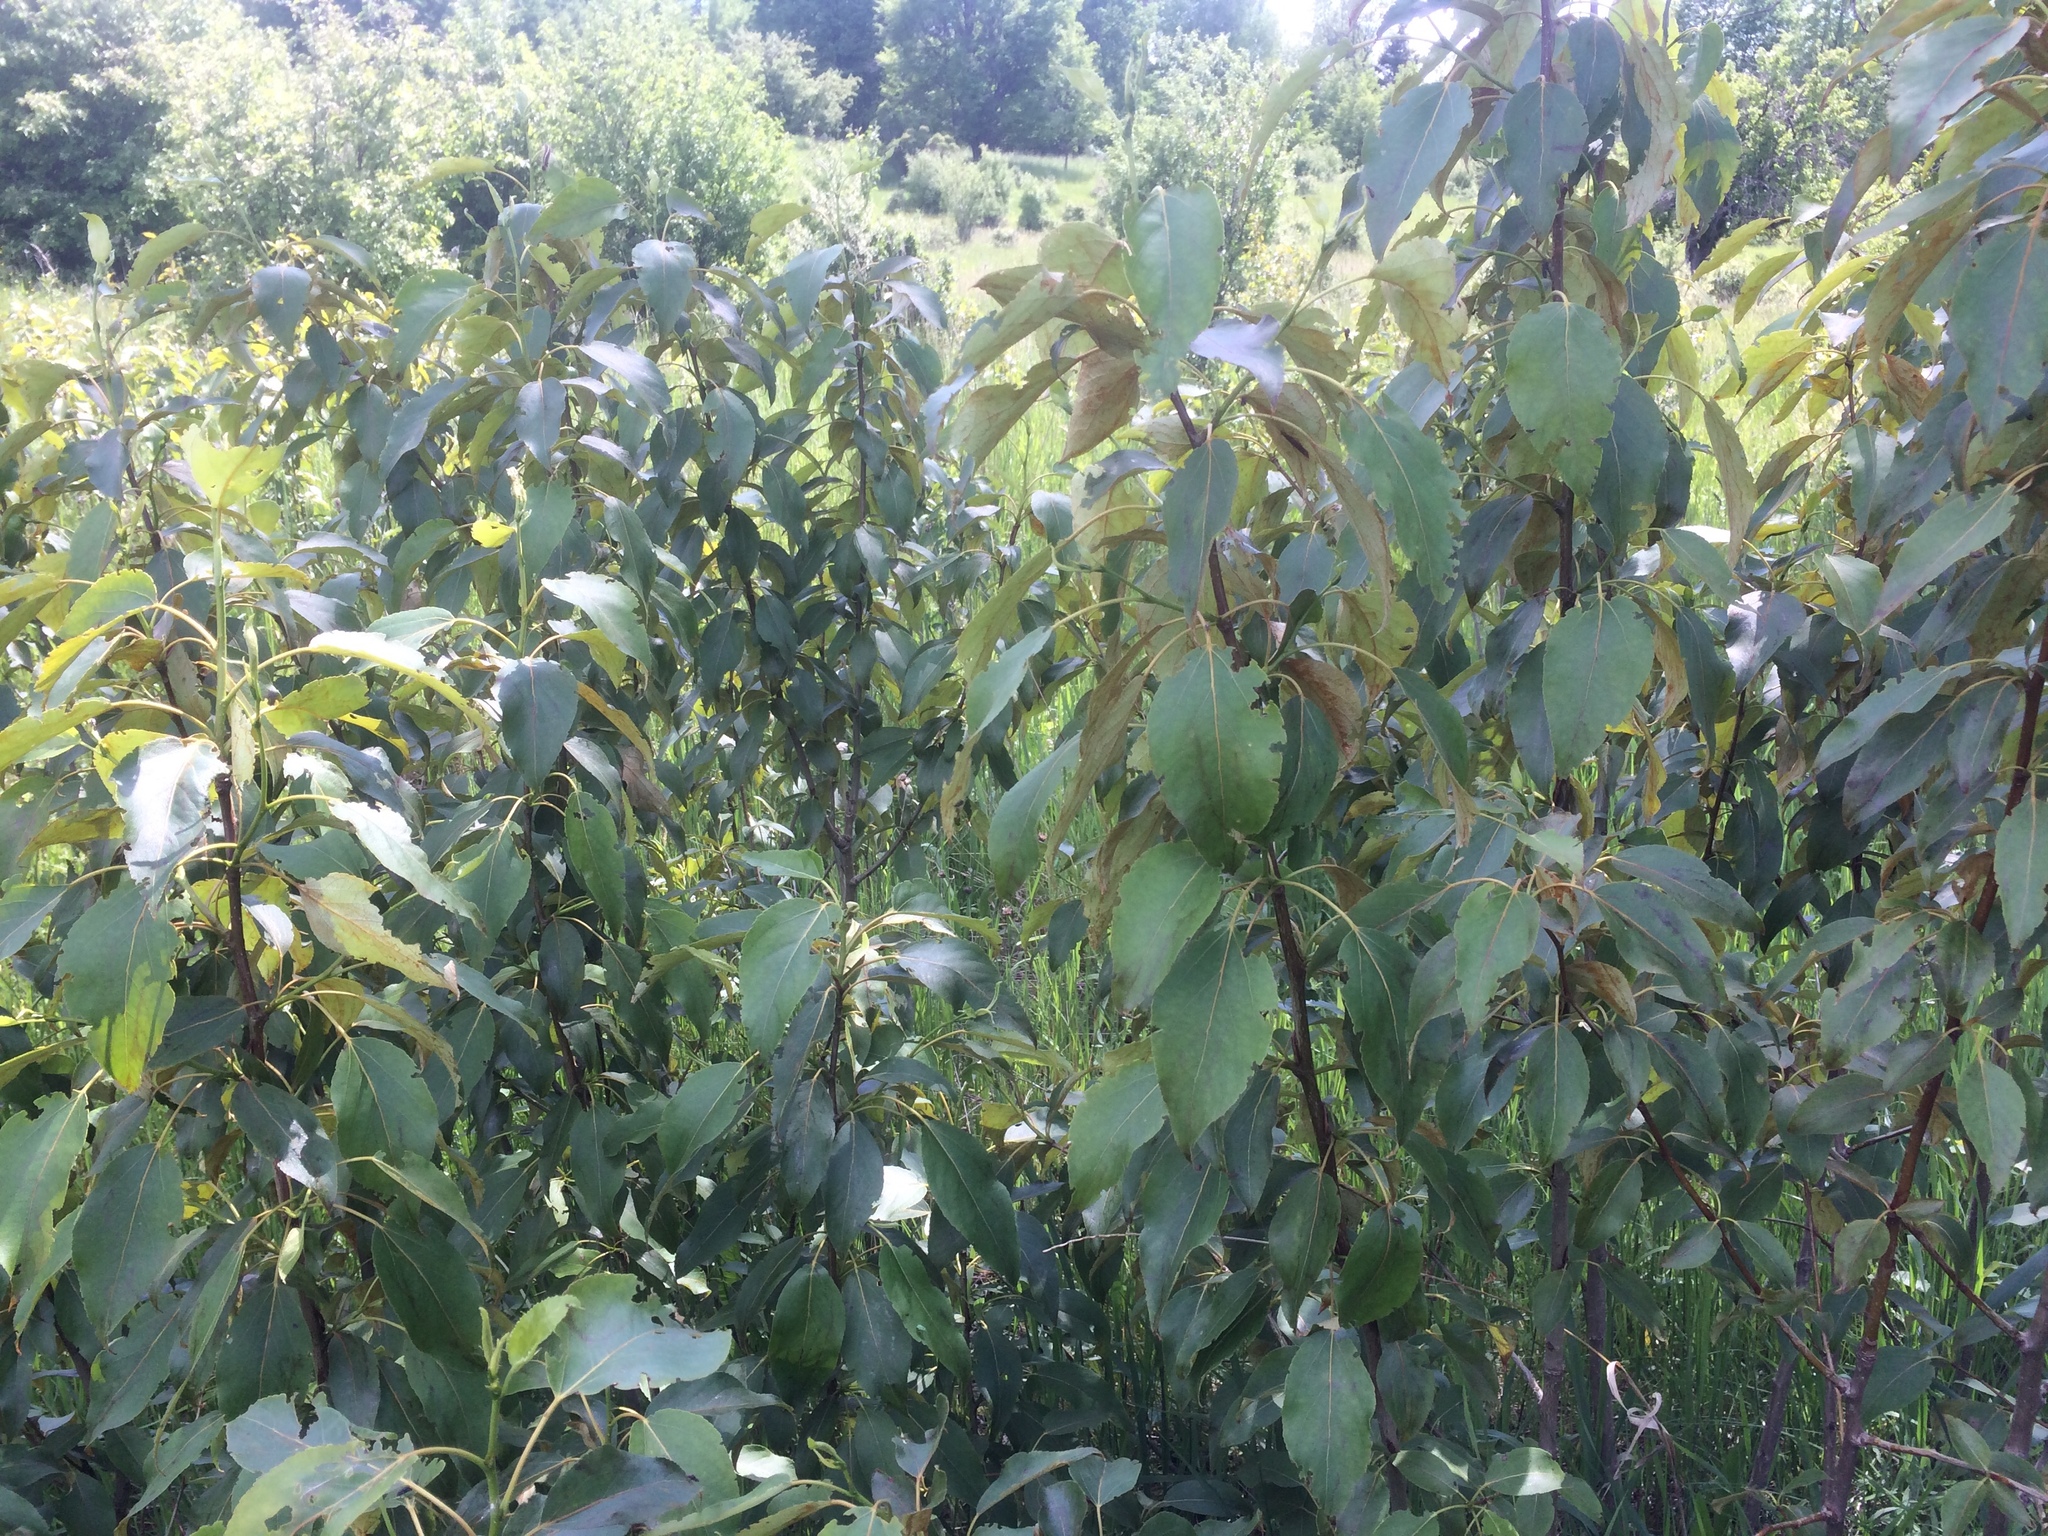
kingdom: Plantae
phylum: Tracheophyta
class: Magnoliopsida
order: Malpighiales
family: Salicaceae
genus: Populus
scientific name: Populus balsamifera
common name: Balsam poplar
